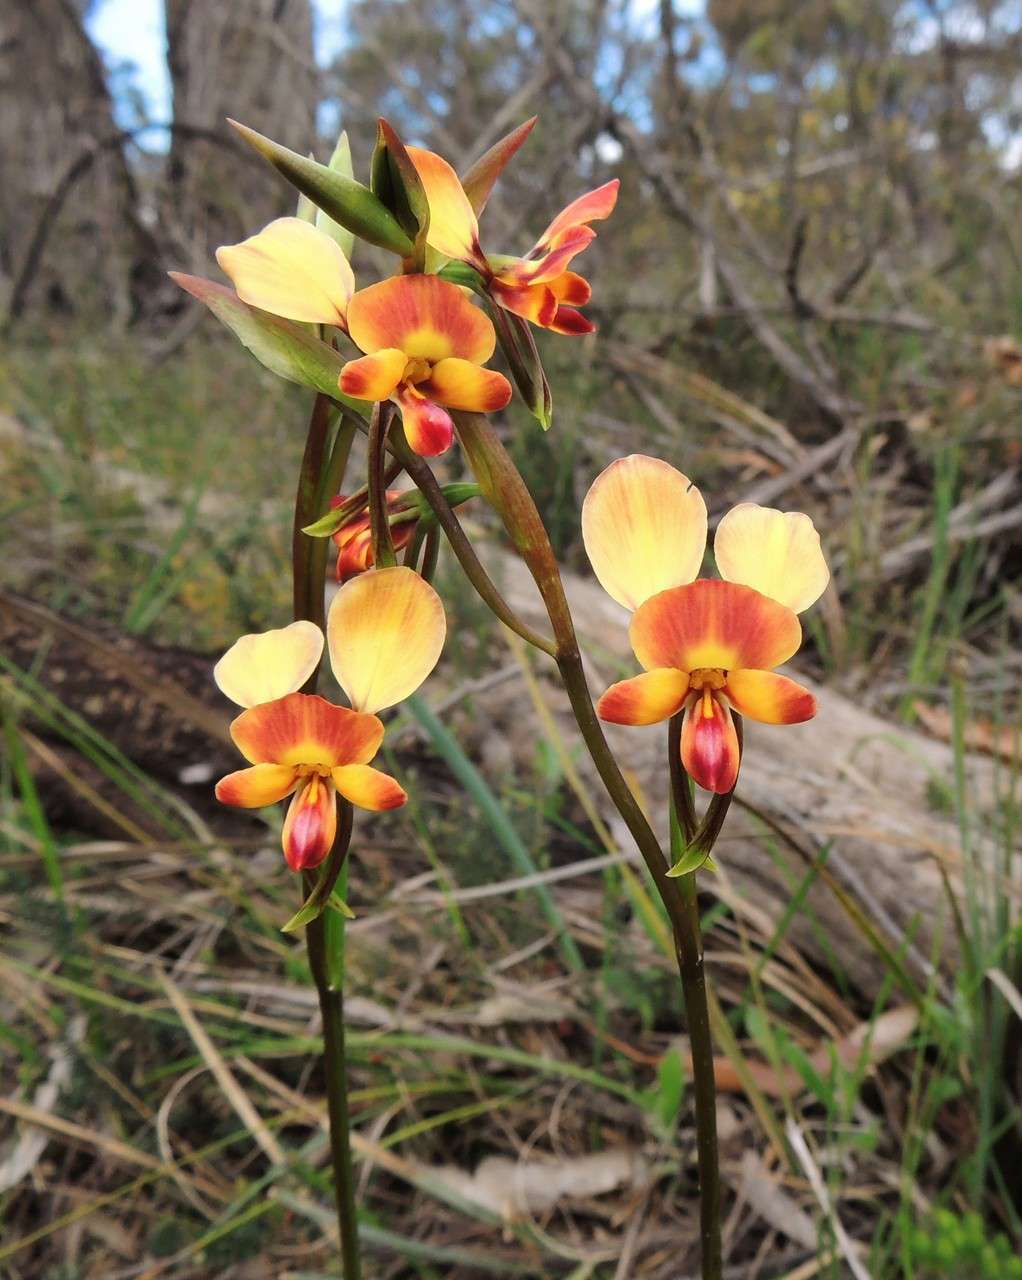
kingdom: Plantae
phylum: Tracheophyta
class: Liliopsida
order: Asparagales
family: Orchidaceae
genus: Diuris
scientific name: Diuris orientis
